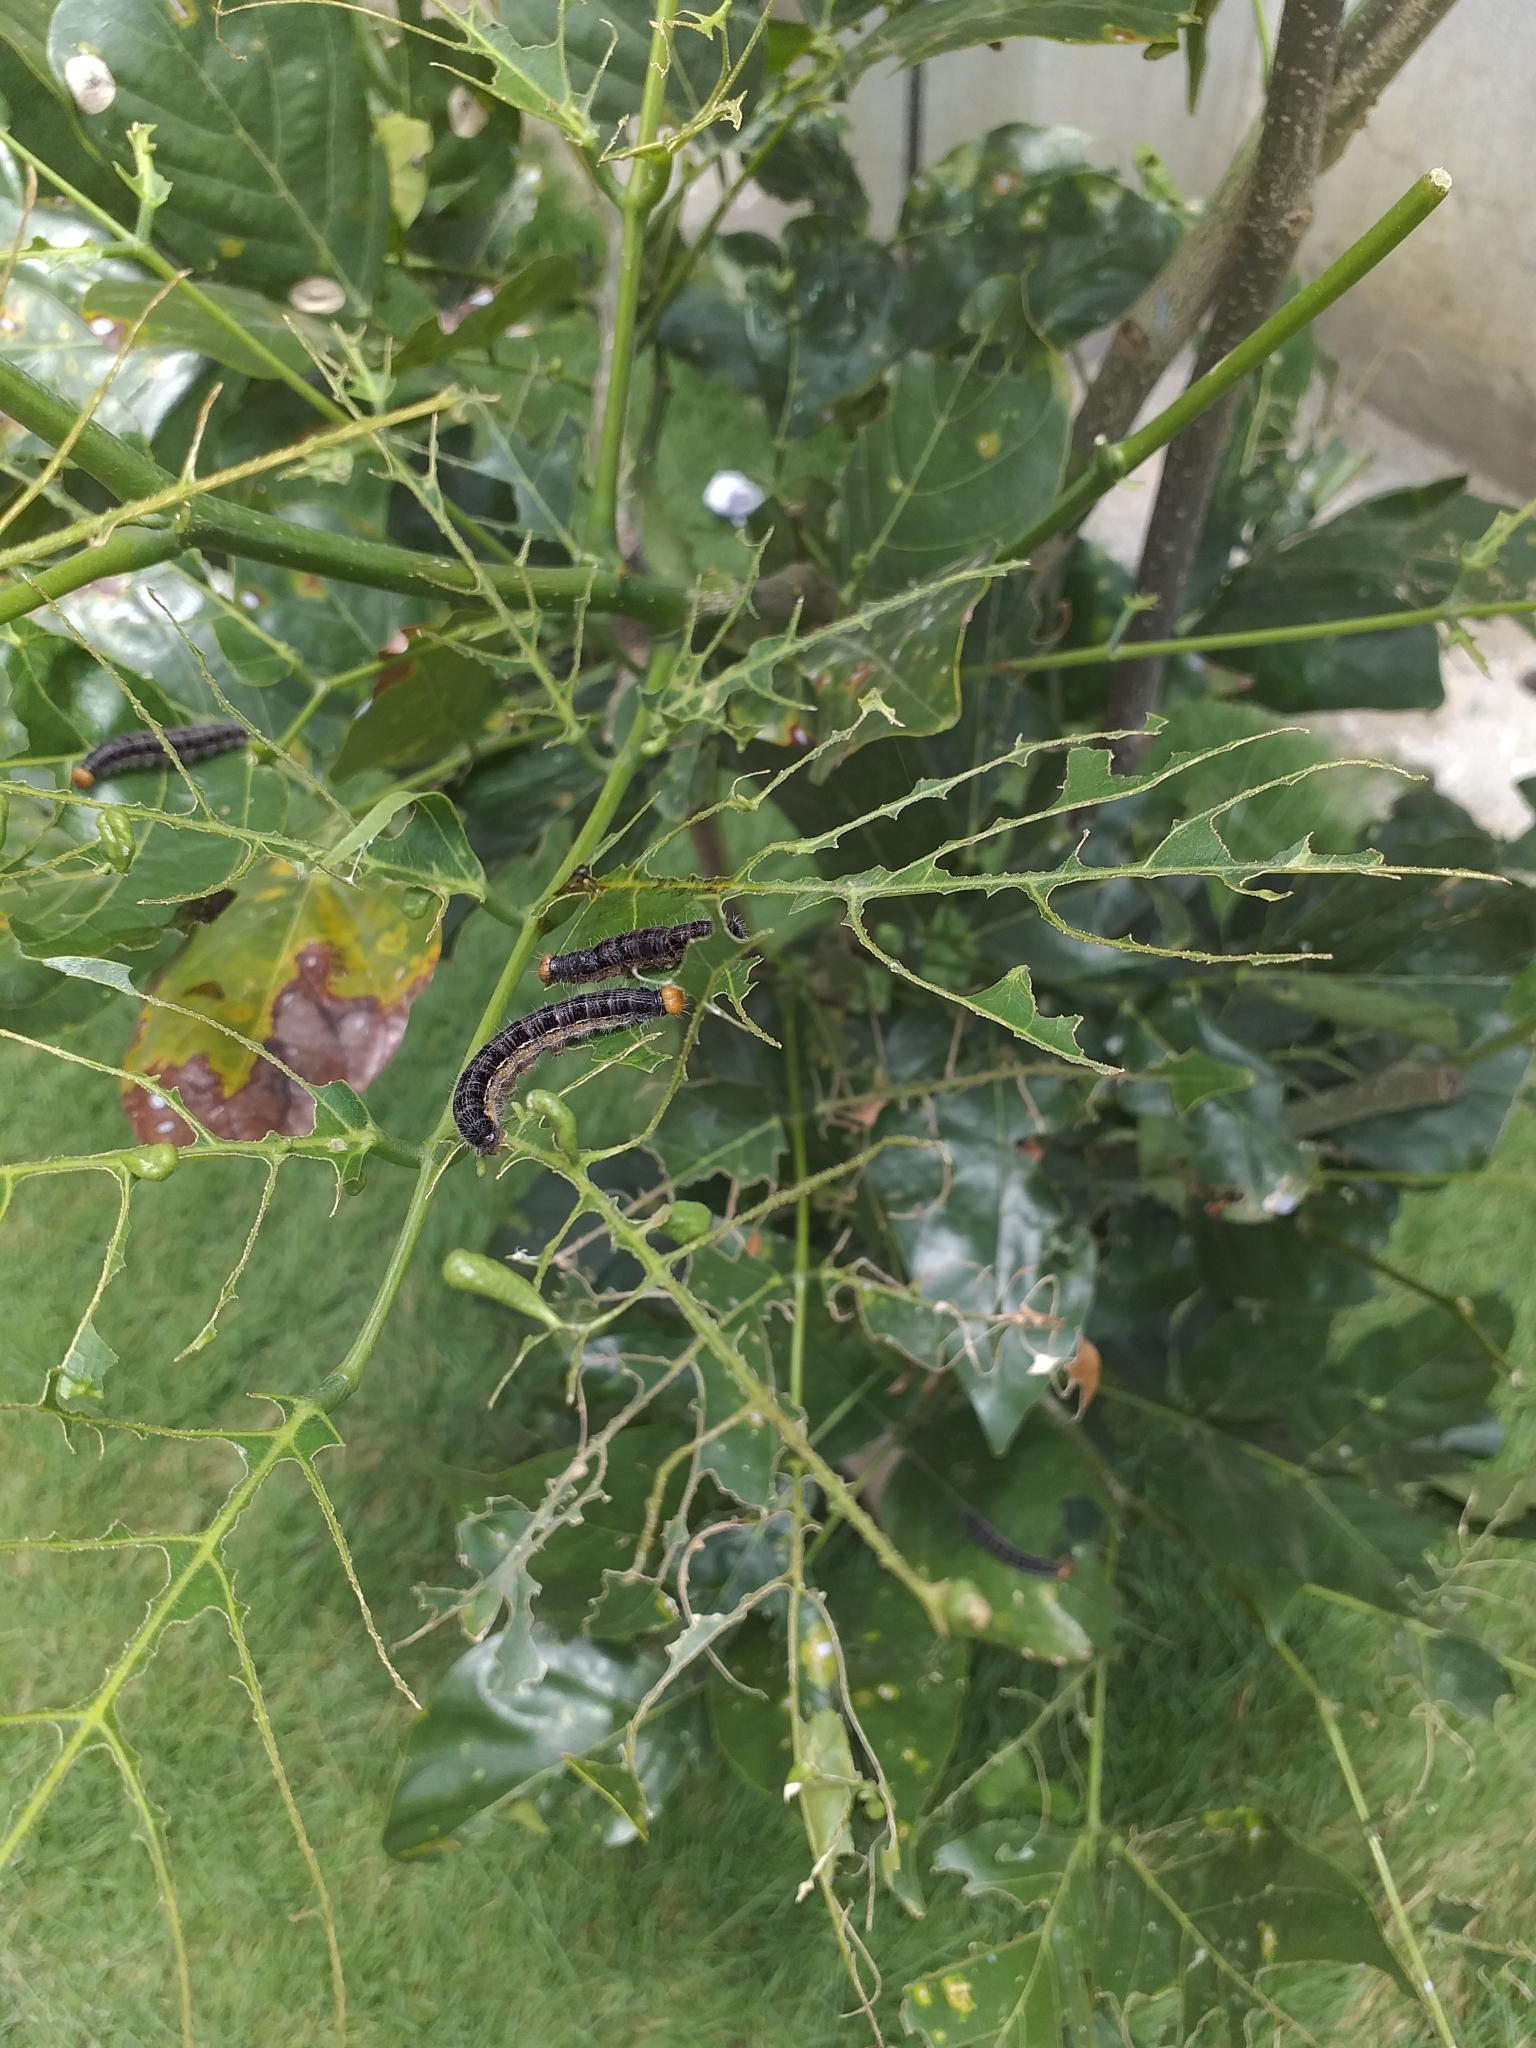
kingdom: Animalia
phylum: Arthropoda
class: Insecta
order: Lepidoptera
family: Hesperiidae
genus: Hasora
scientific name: Hasora chromus
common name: Common banded awl
